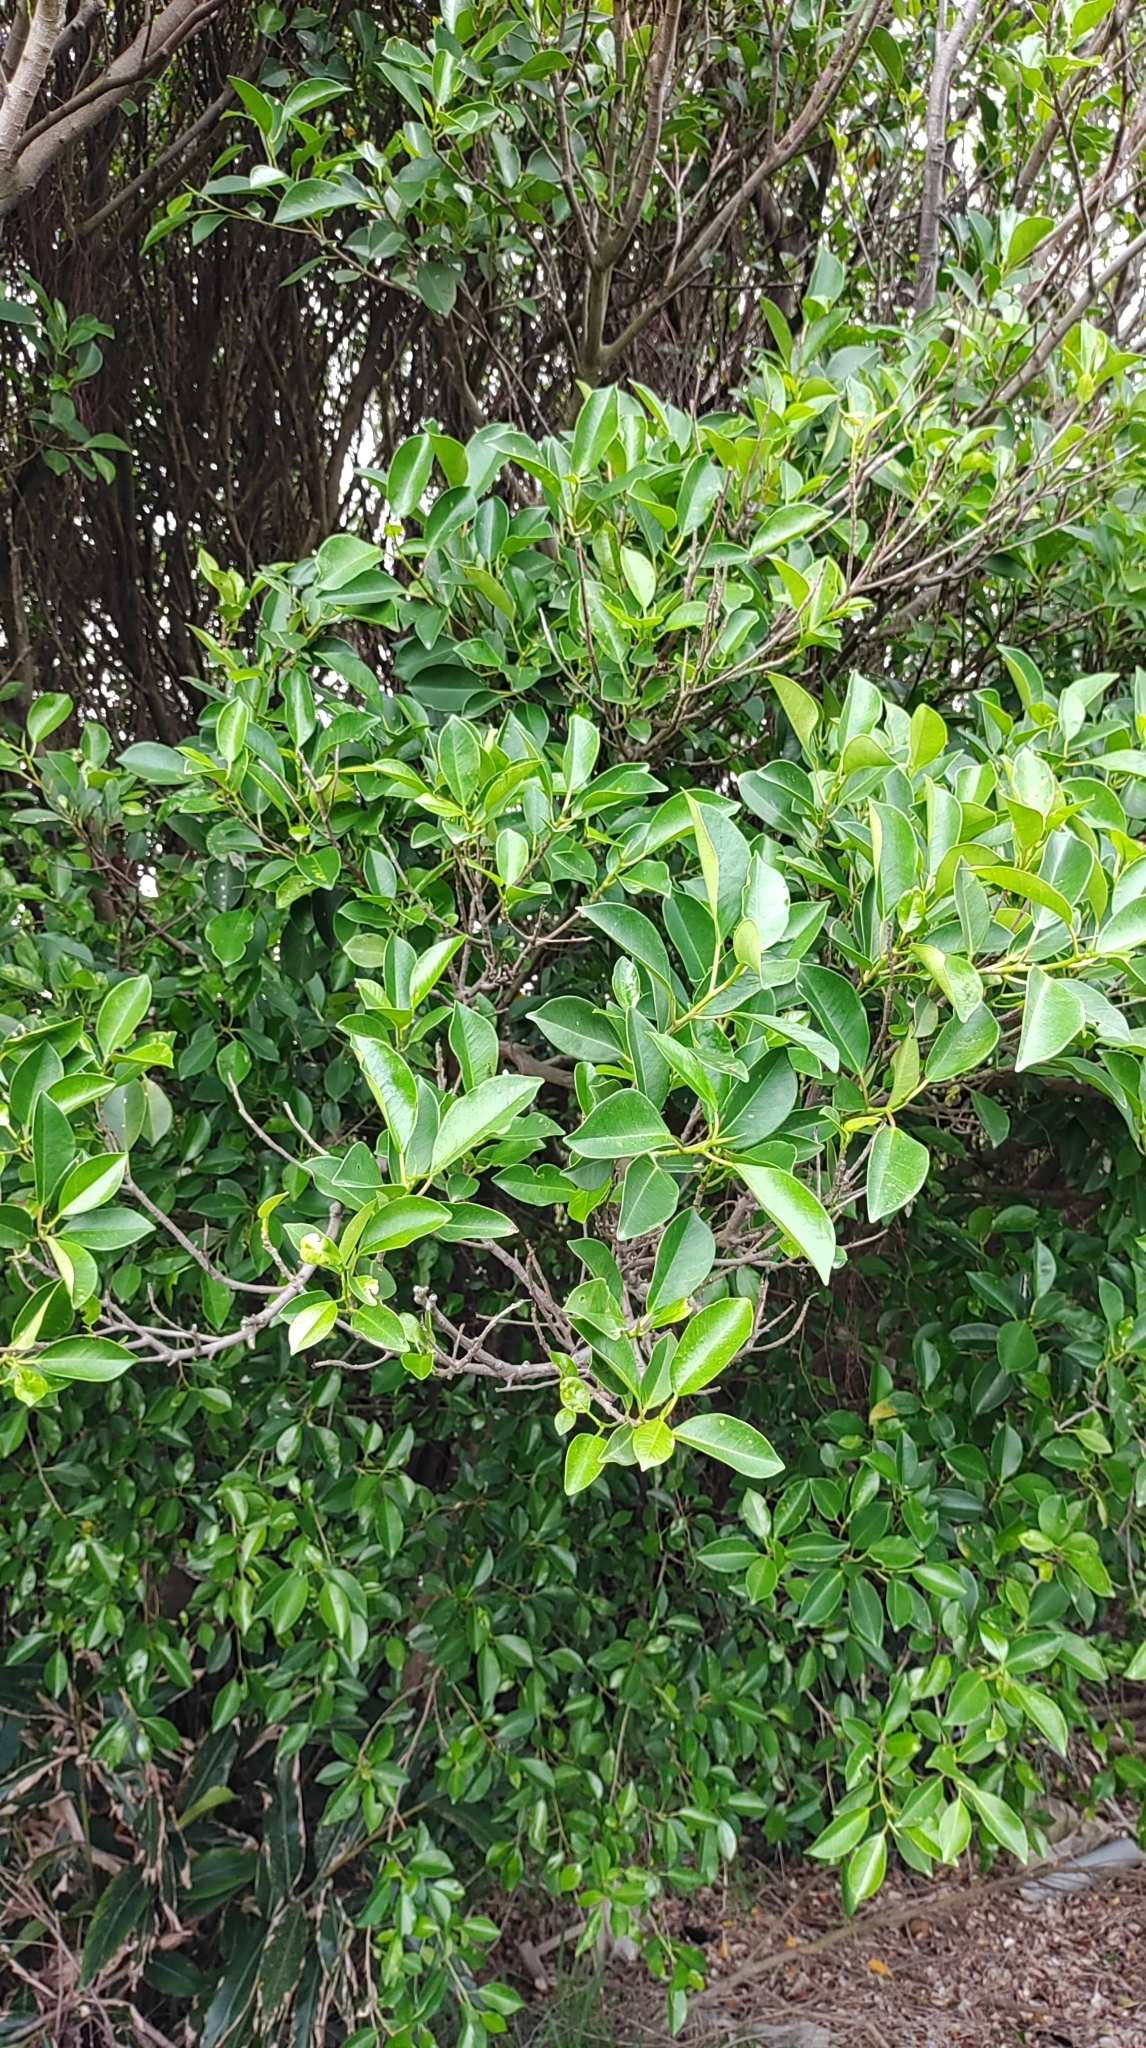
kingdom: Plantae
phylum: Tracheophyta
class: Magnoliopsida
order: Rosales
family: Moraceae
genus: Ficus
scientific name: Ficus microcarpa
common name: Chinese banyan
